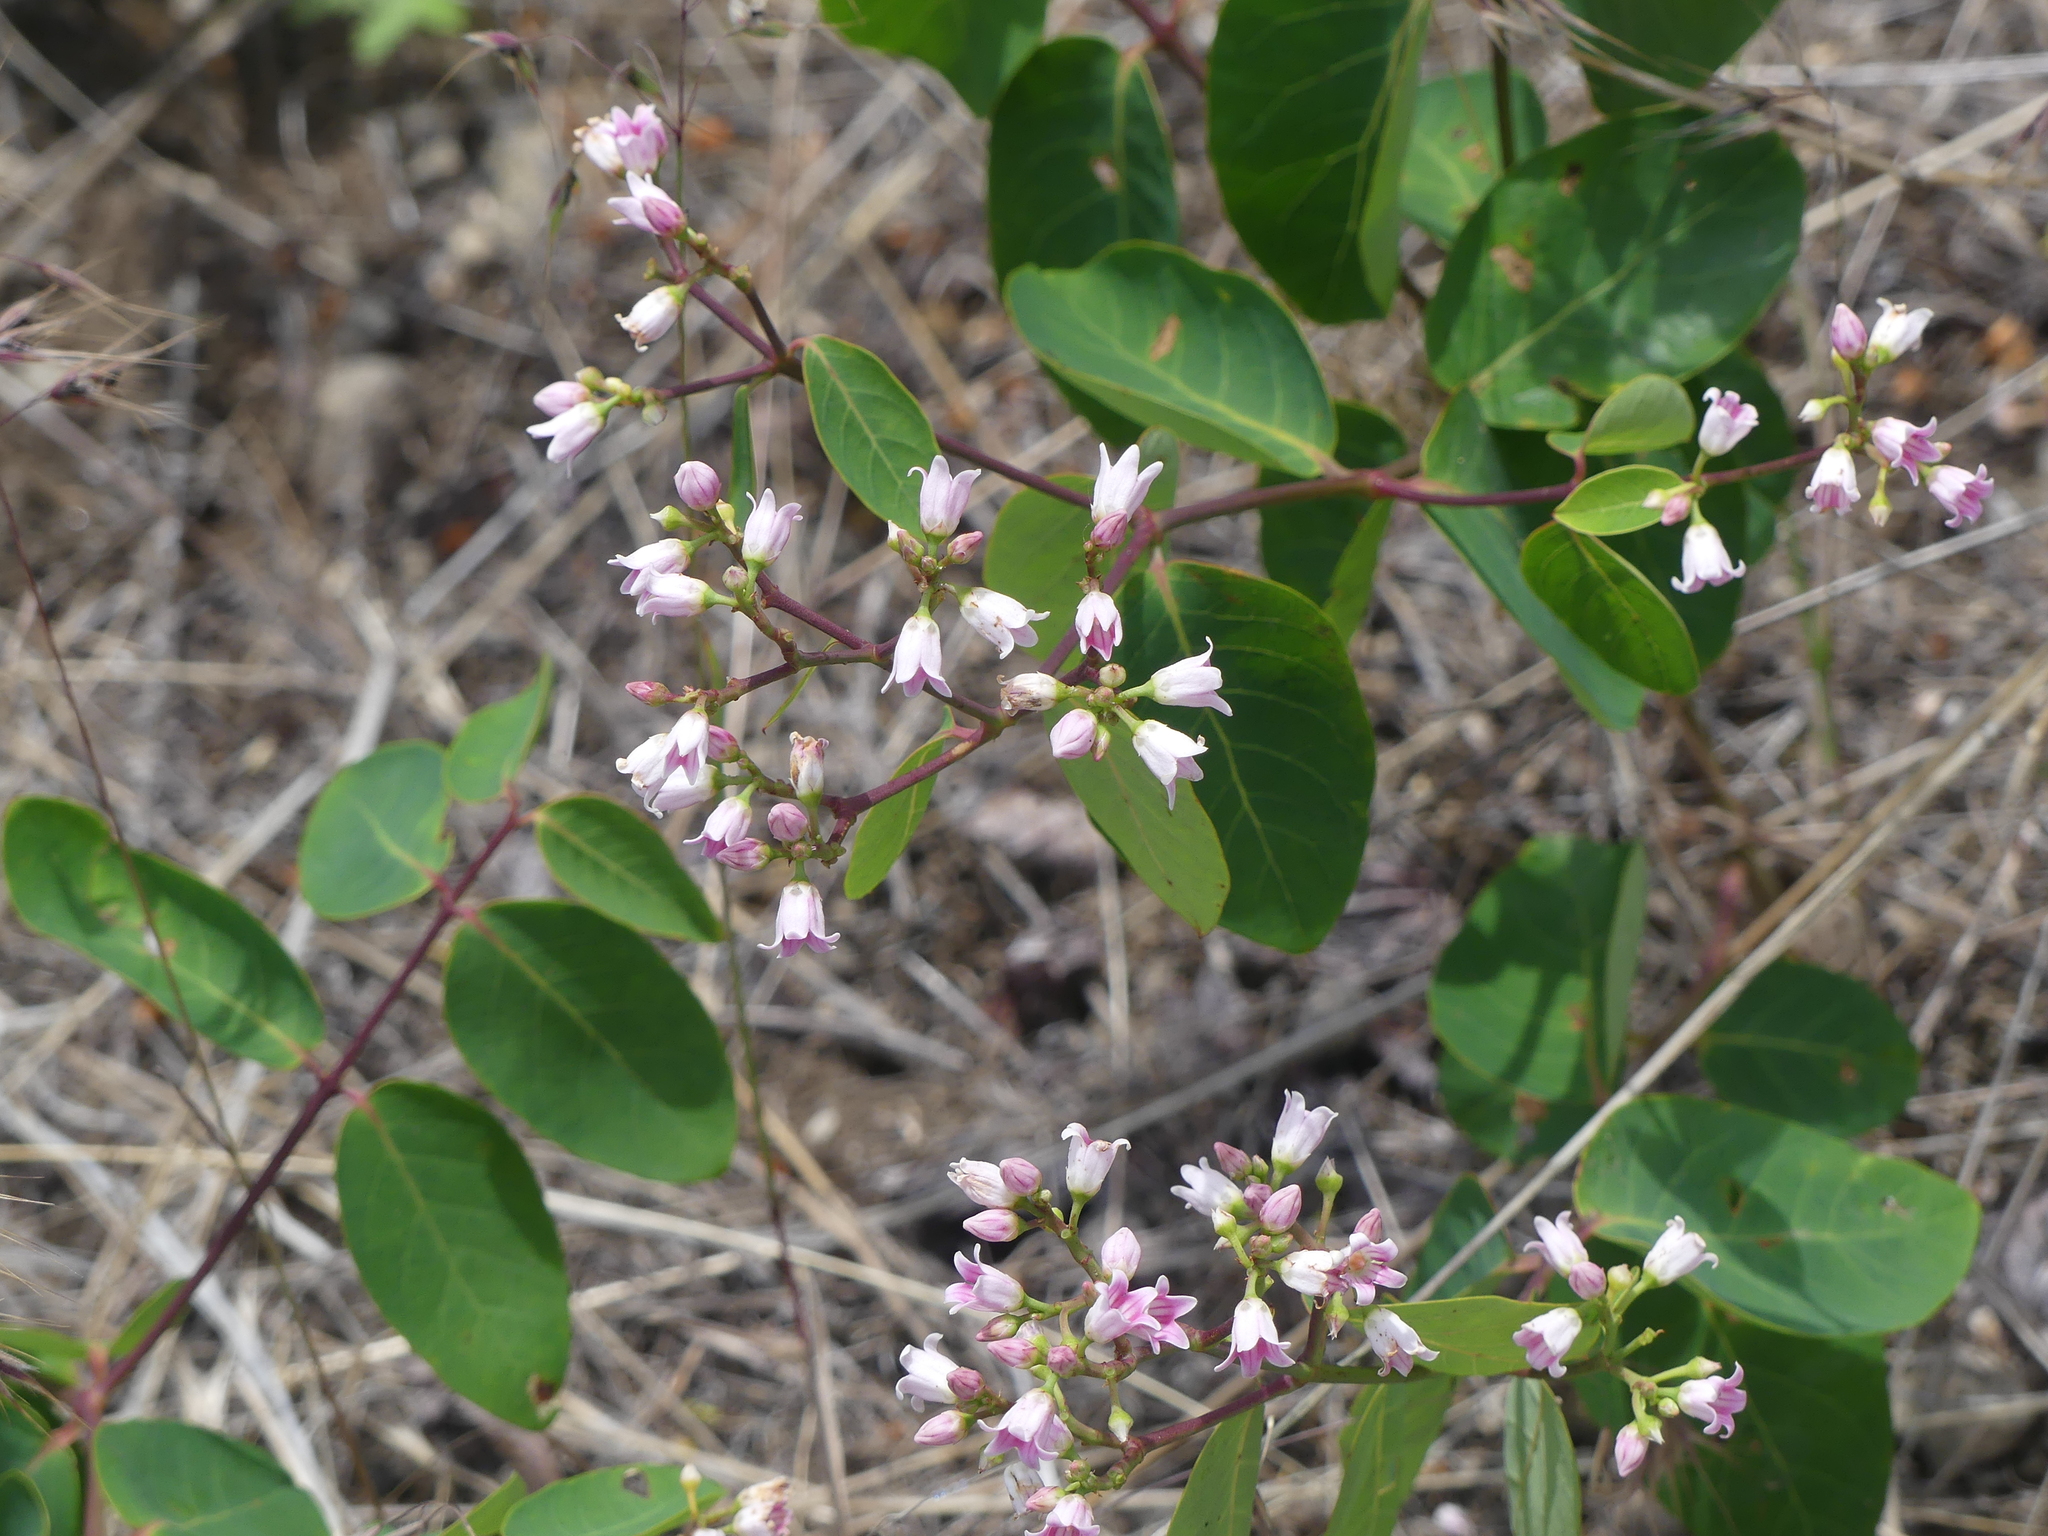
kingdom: Plantae
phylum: Tracheophyta
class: Magnoliopsida
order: Gentianales
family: Apocynaceae
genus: Apocynum
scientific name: Apocynum androsaemifolium
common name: Spreading dogbane
